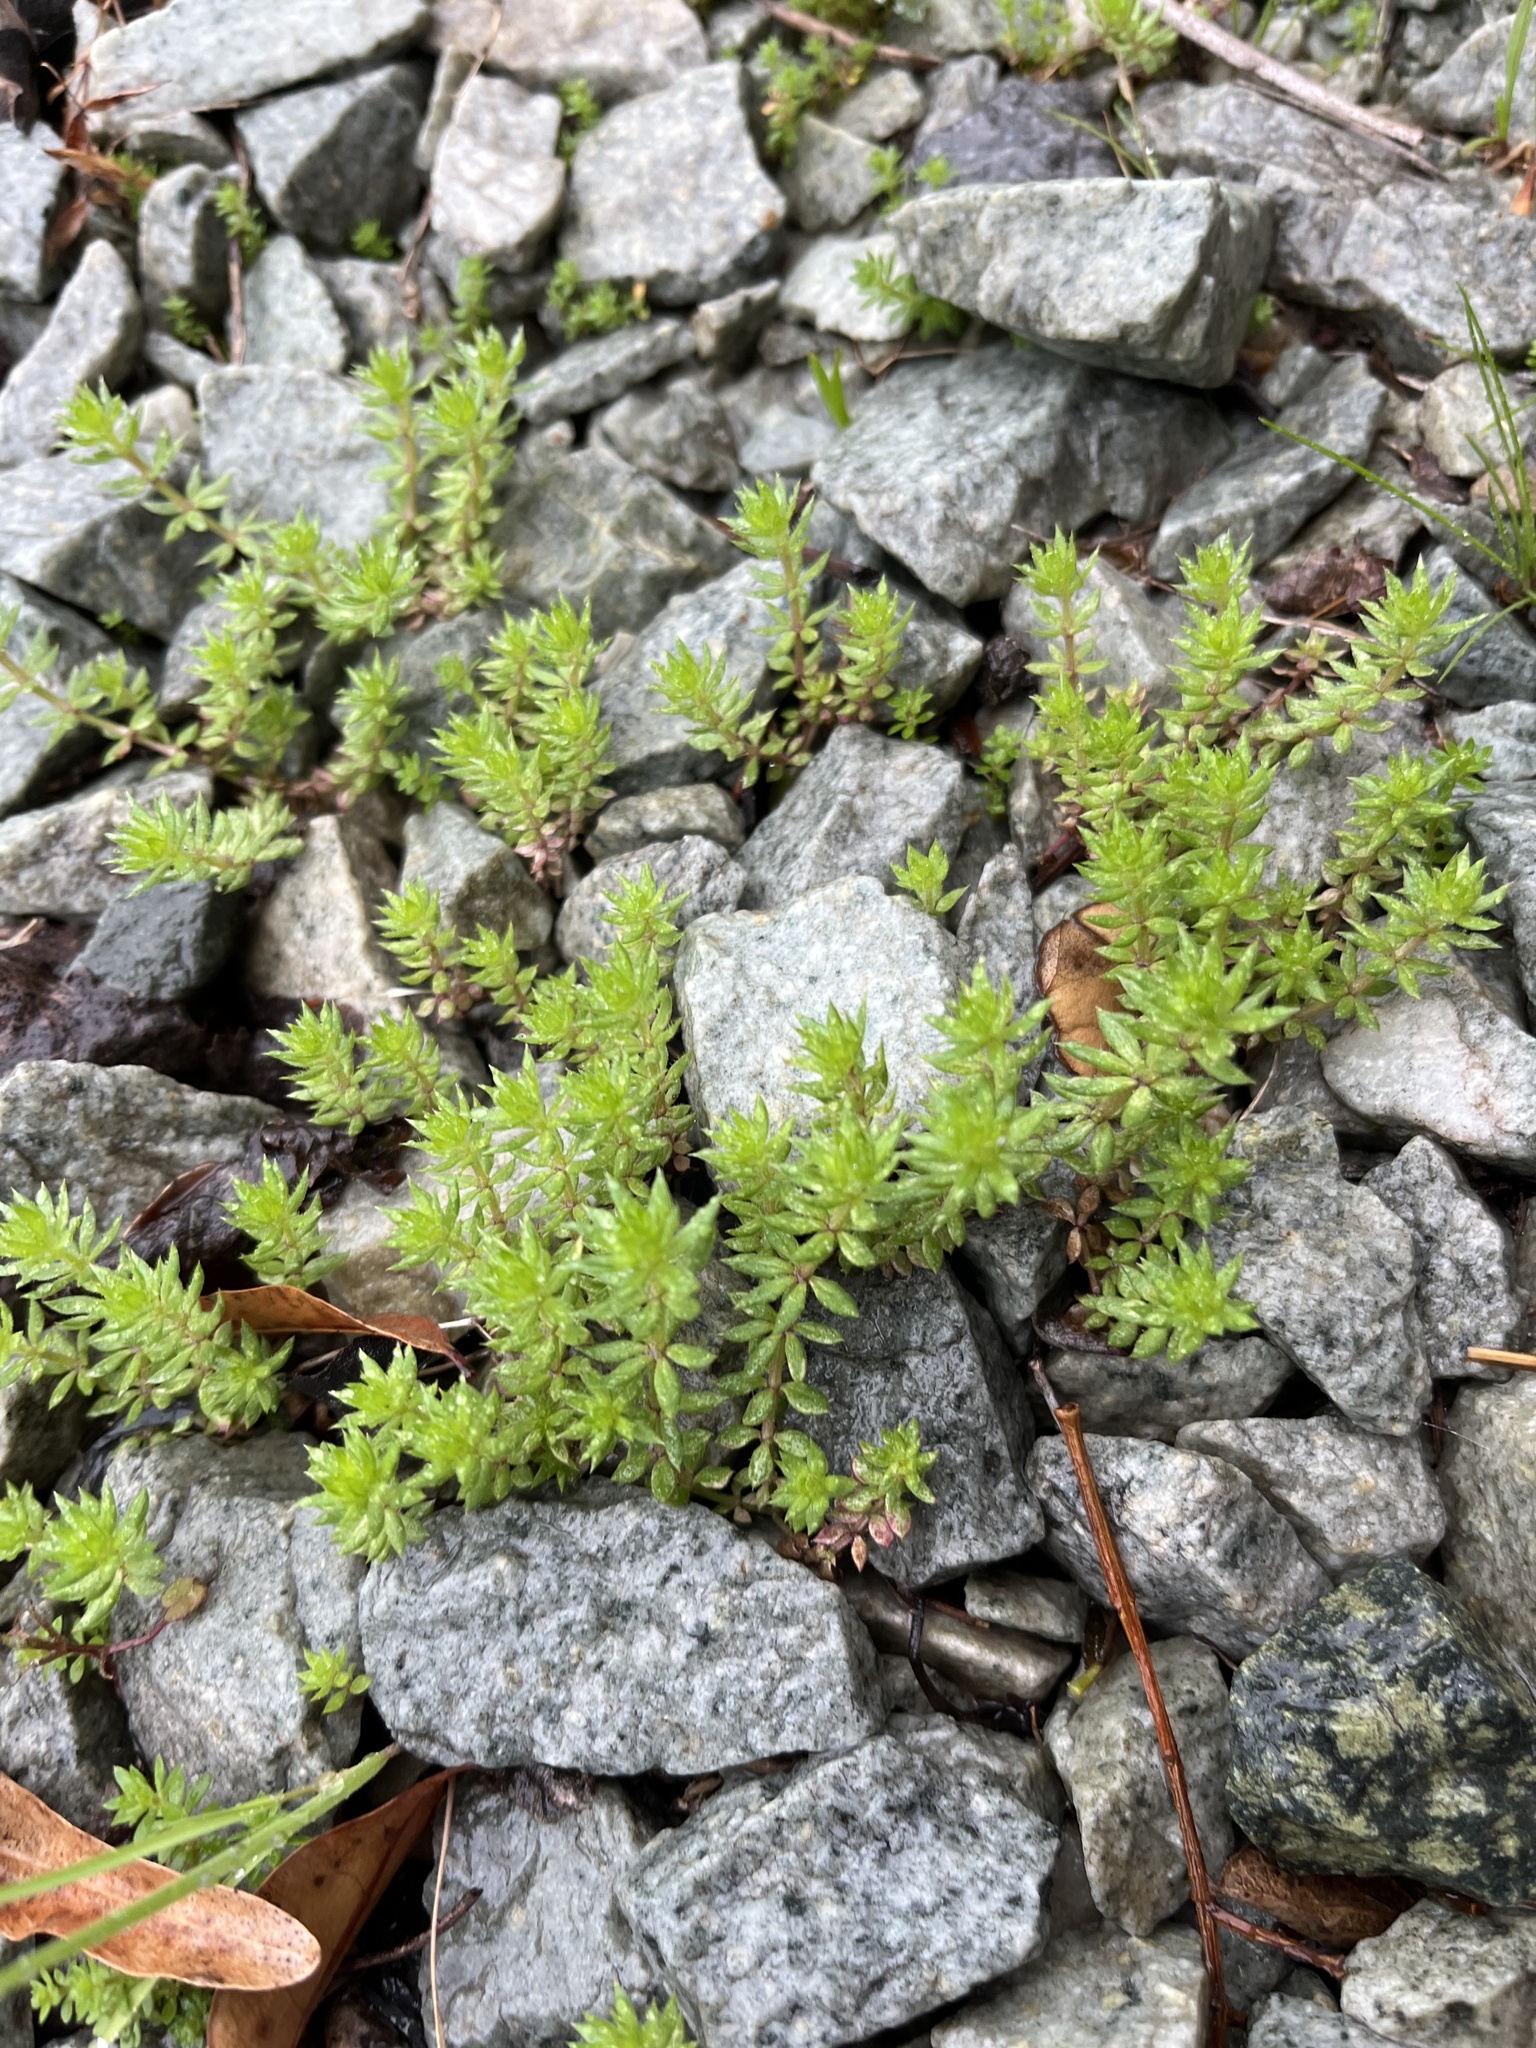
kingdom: Plantae
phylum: Tracheophyta
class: Magnoliopsida
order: Gentianales
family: Rubiaceae
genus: Sherardia
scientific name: Sherardia arvensis
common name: Field madder
